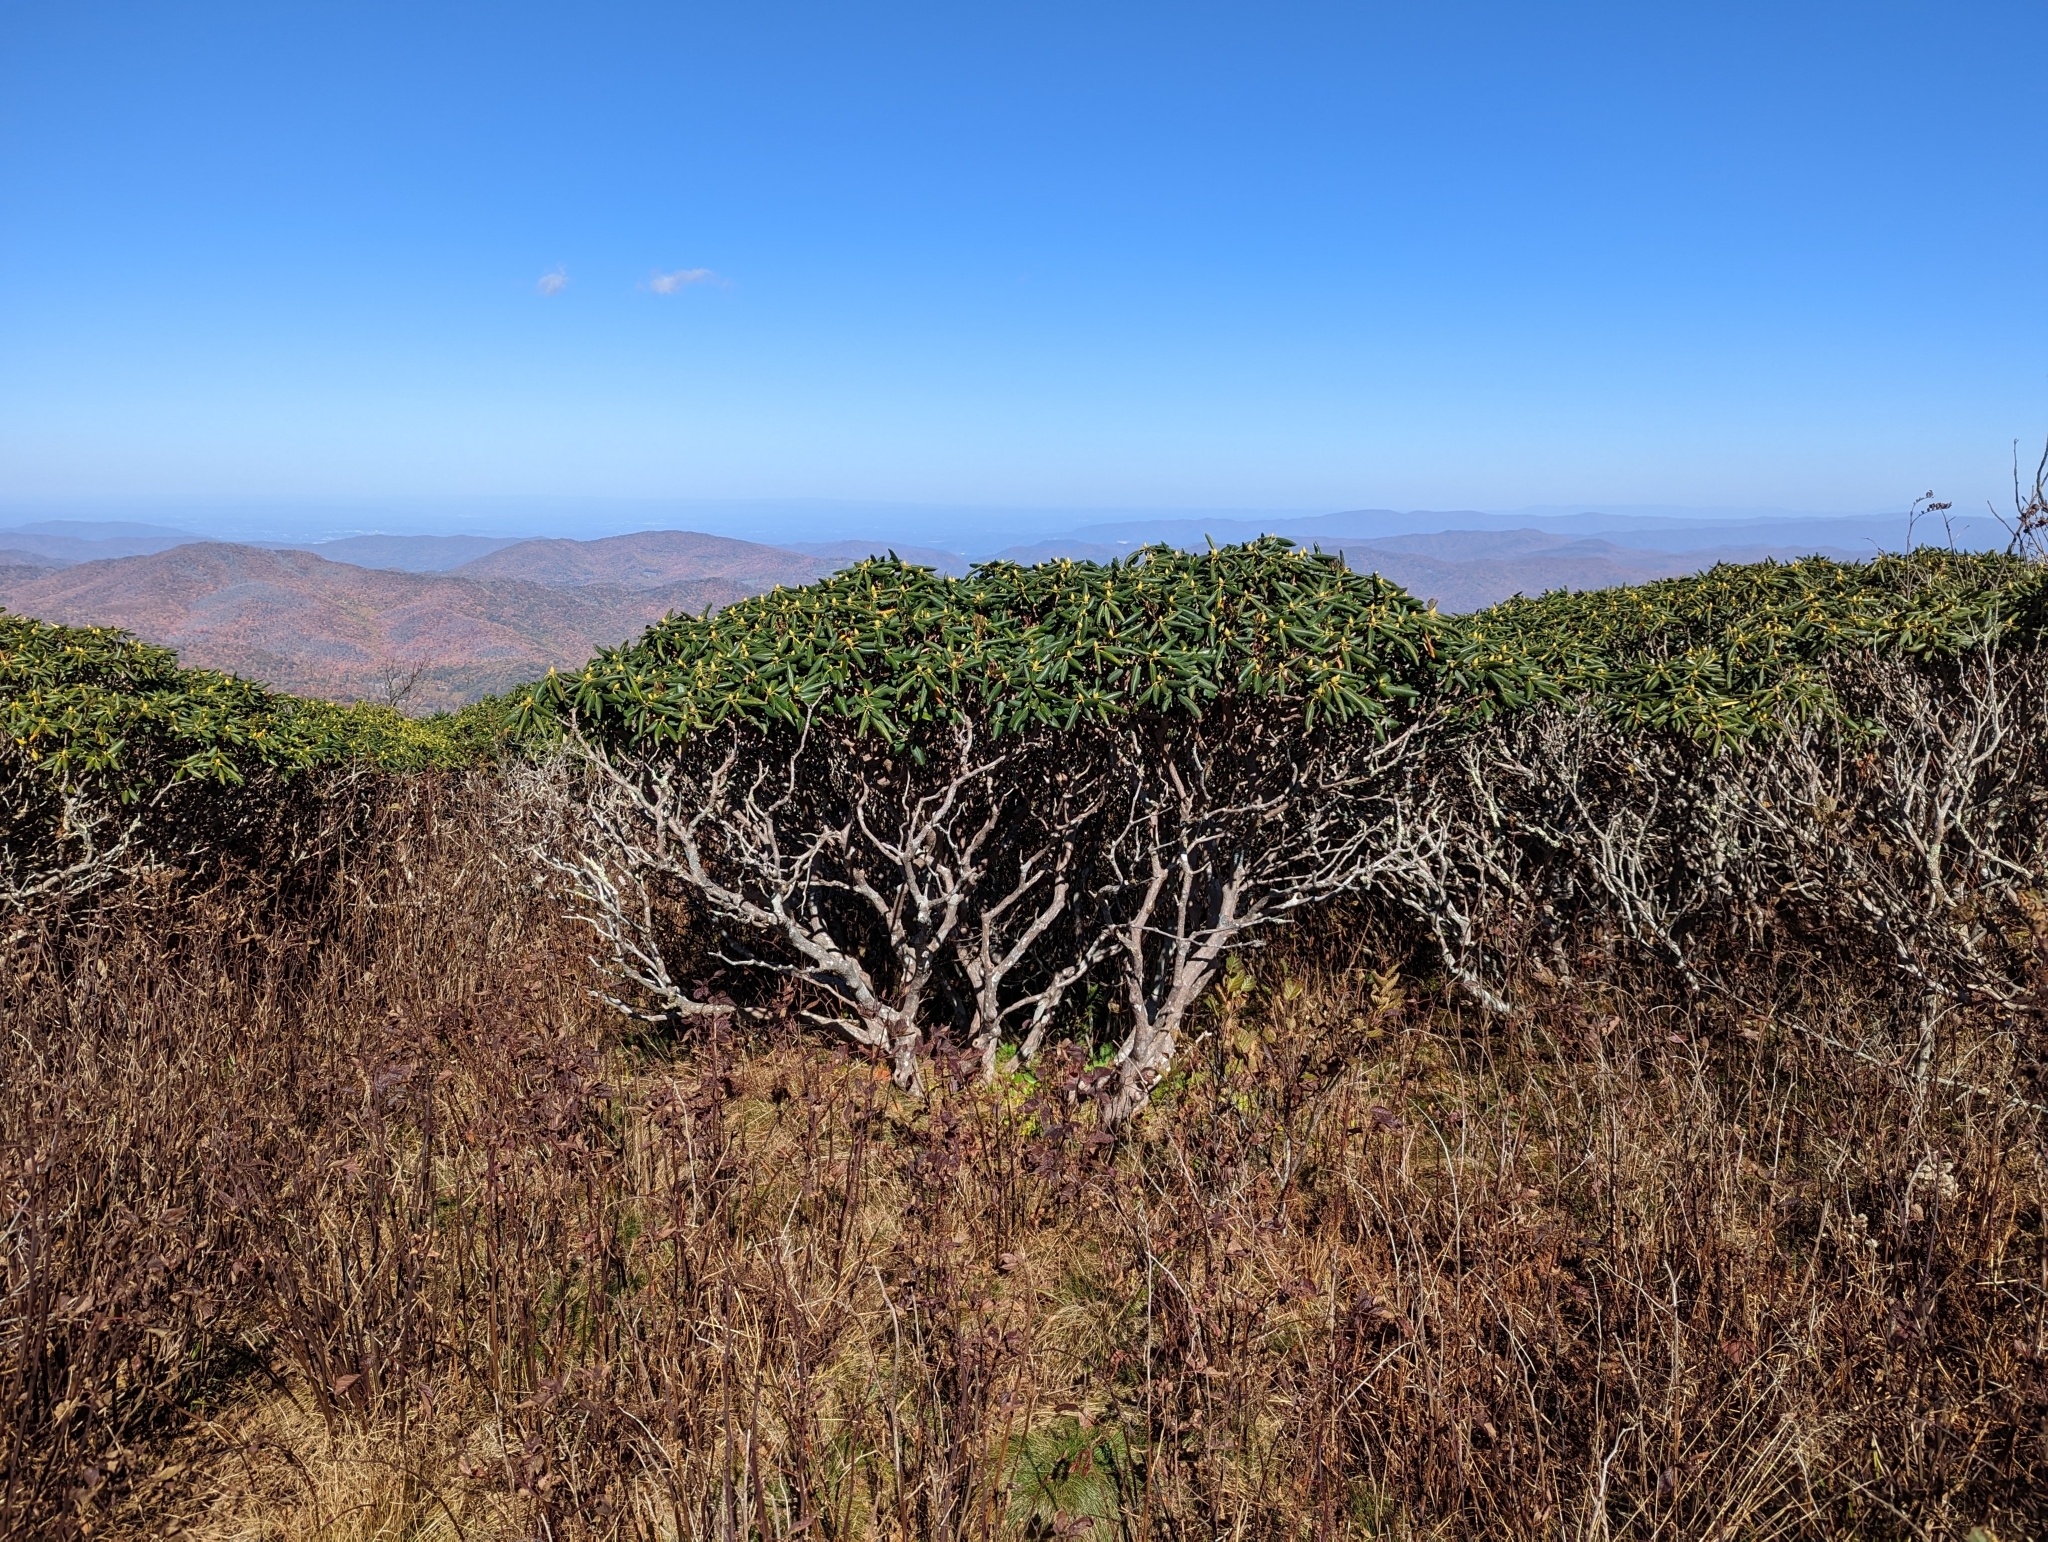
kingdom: Plantae
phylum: Tracheophyta
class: Magnoliopsida
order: Ericales
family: Ericaceae
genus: Rhododendron
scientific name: Rhododendron catawbiense
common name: Catawba rhododendron
